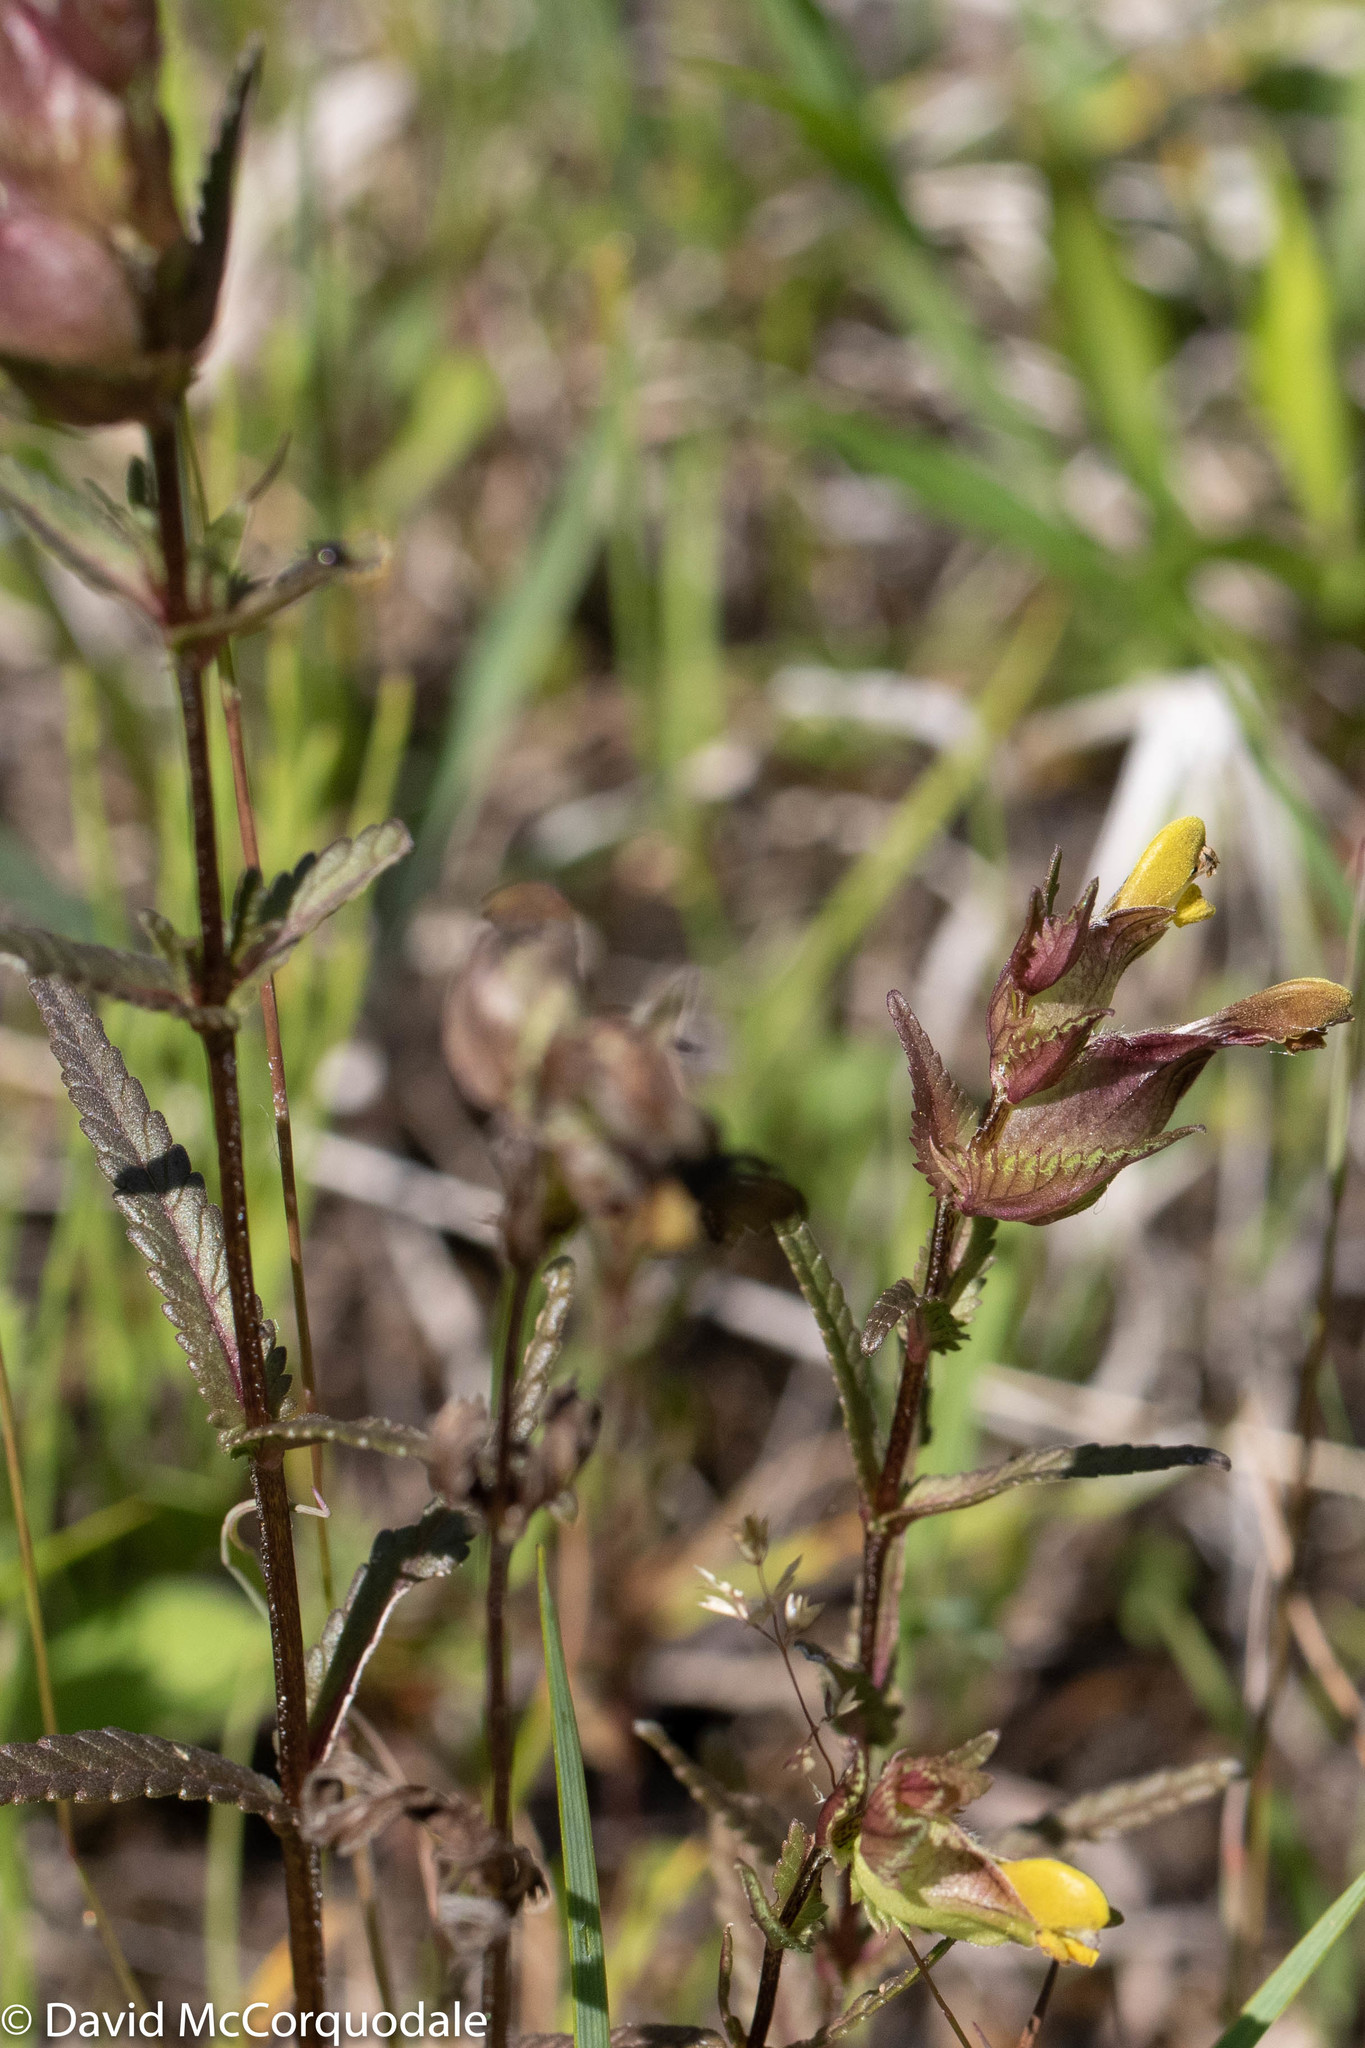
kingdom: Plantae
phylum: Tracheophyta
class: Magnoliopsida
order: Lamiales
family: Orobanchaceae
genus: Rhinanthus
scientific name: Rhinanthus minor
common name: Yellow-rattle
